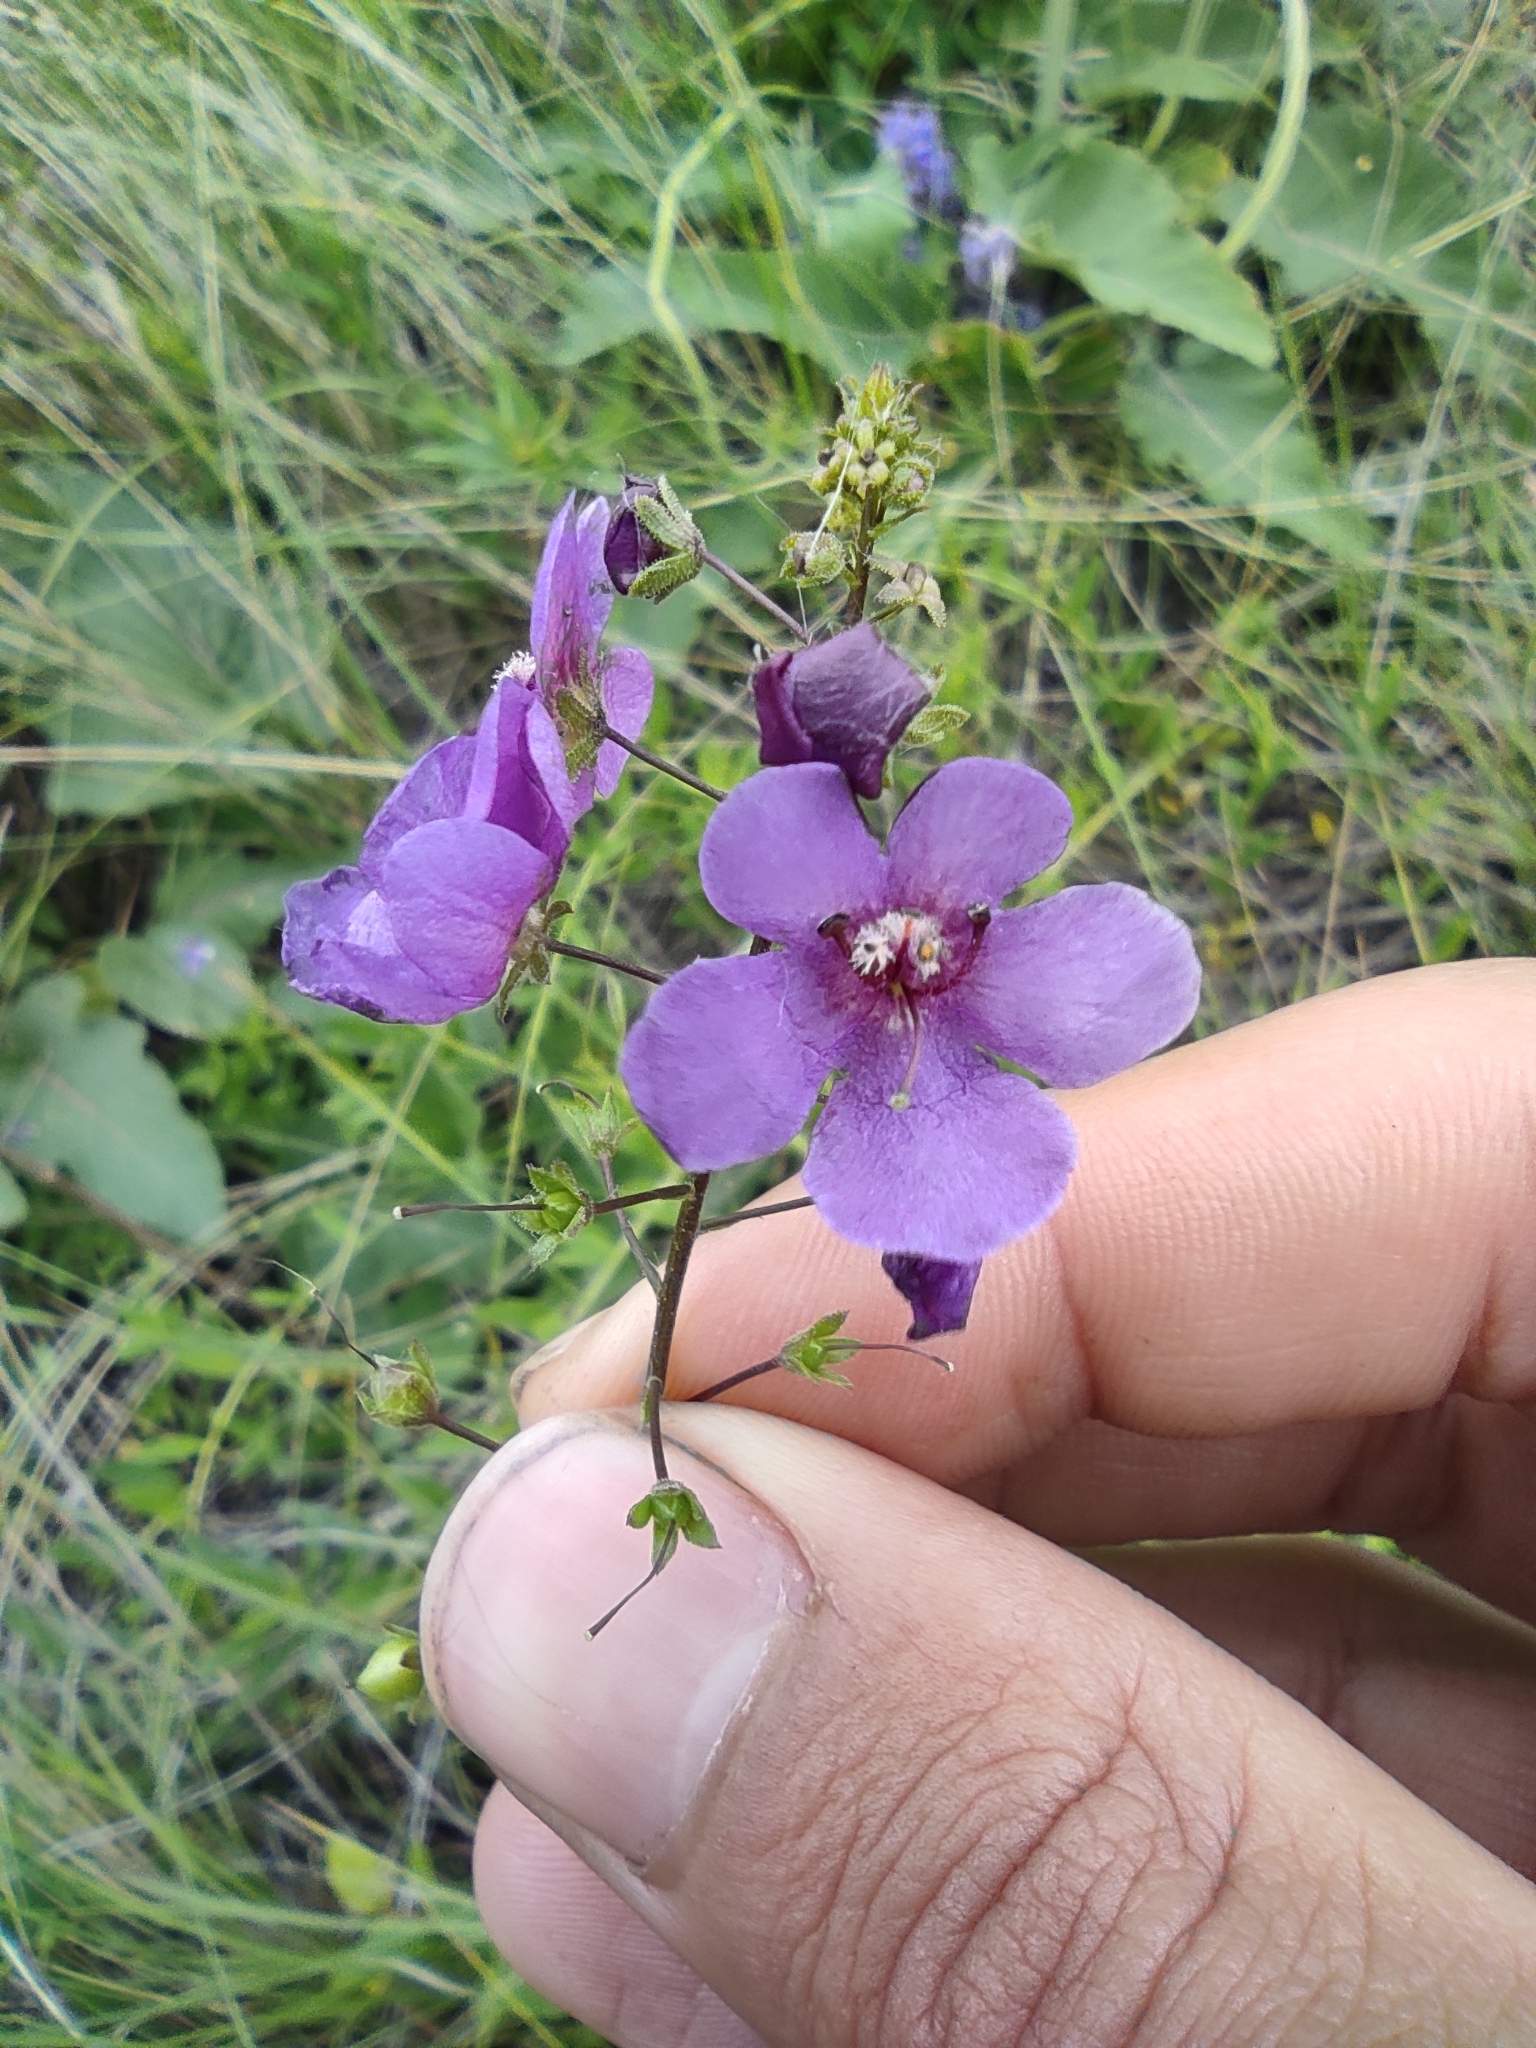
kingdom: Plantae
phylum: Tracheophyta
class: Magnoliopsida
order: Lamiales
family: Scrophulariaceae
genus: Verbascum
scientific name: Verbascum phoeniceum
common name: Purple mullein
